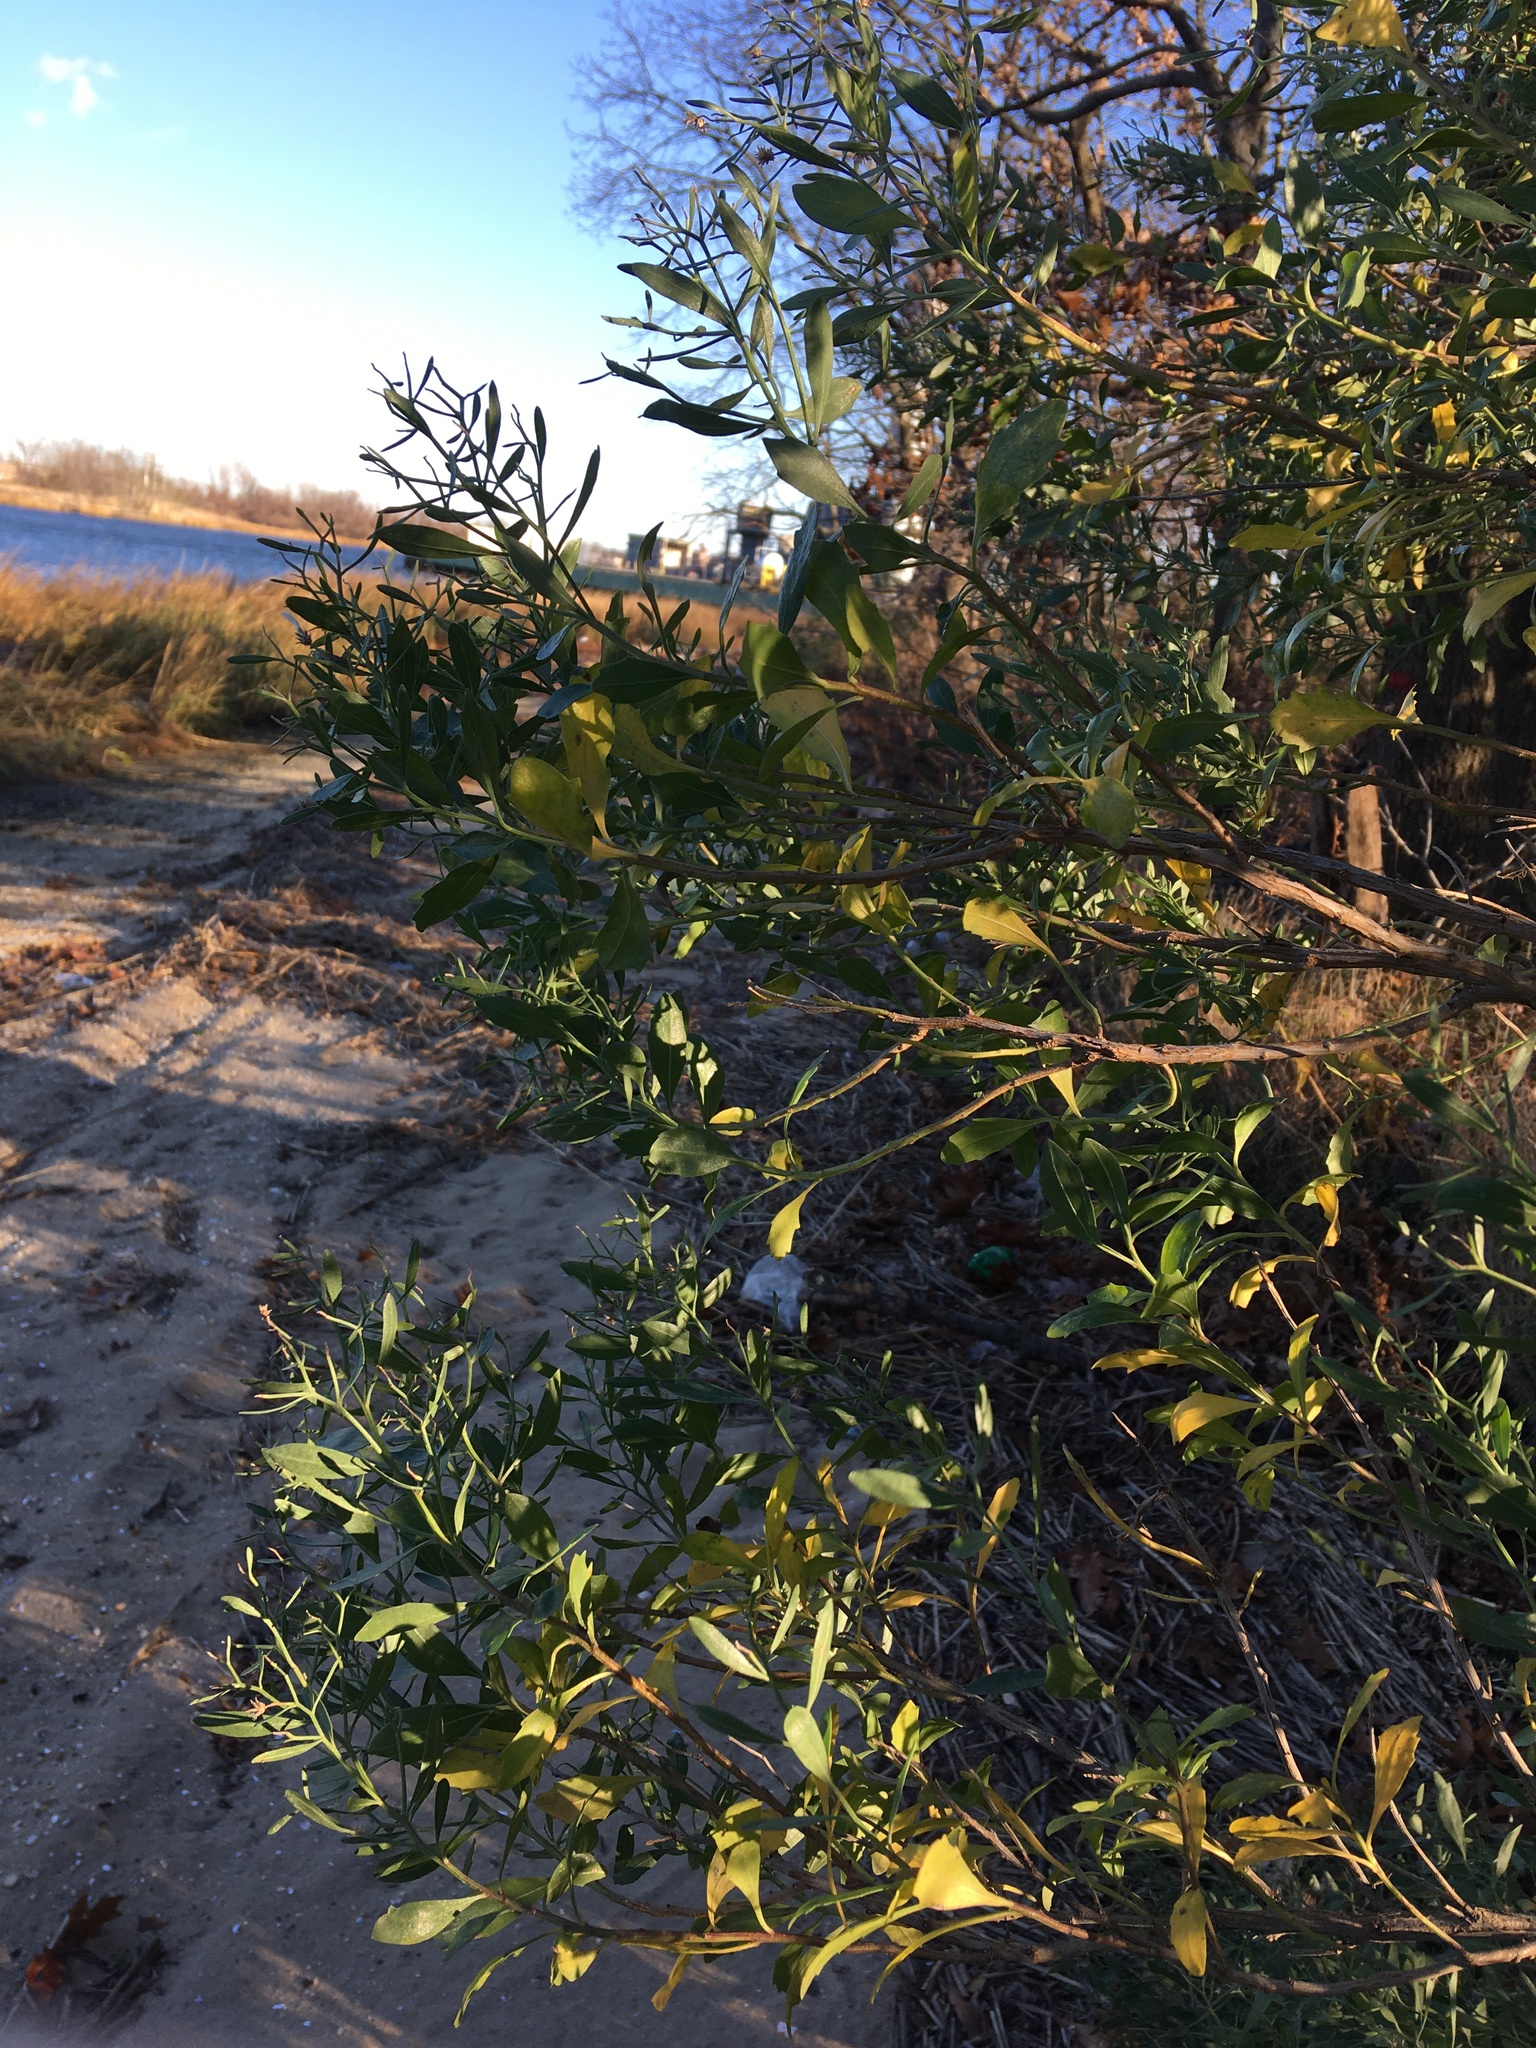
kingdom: Plantae
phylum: Tracheophyta
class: Magnoliopsida
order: Asterales
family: Asteraceae
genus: Baccharis
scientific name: Baccharis halimifolia
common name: Eastern baccharis
